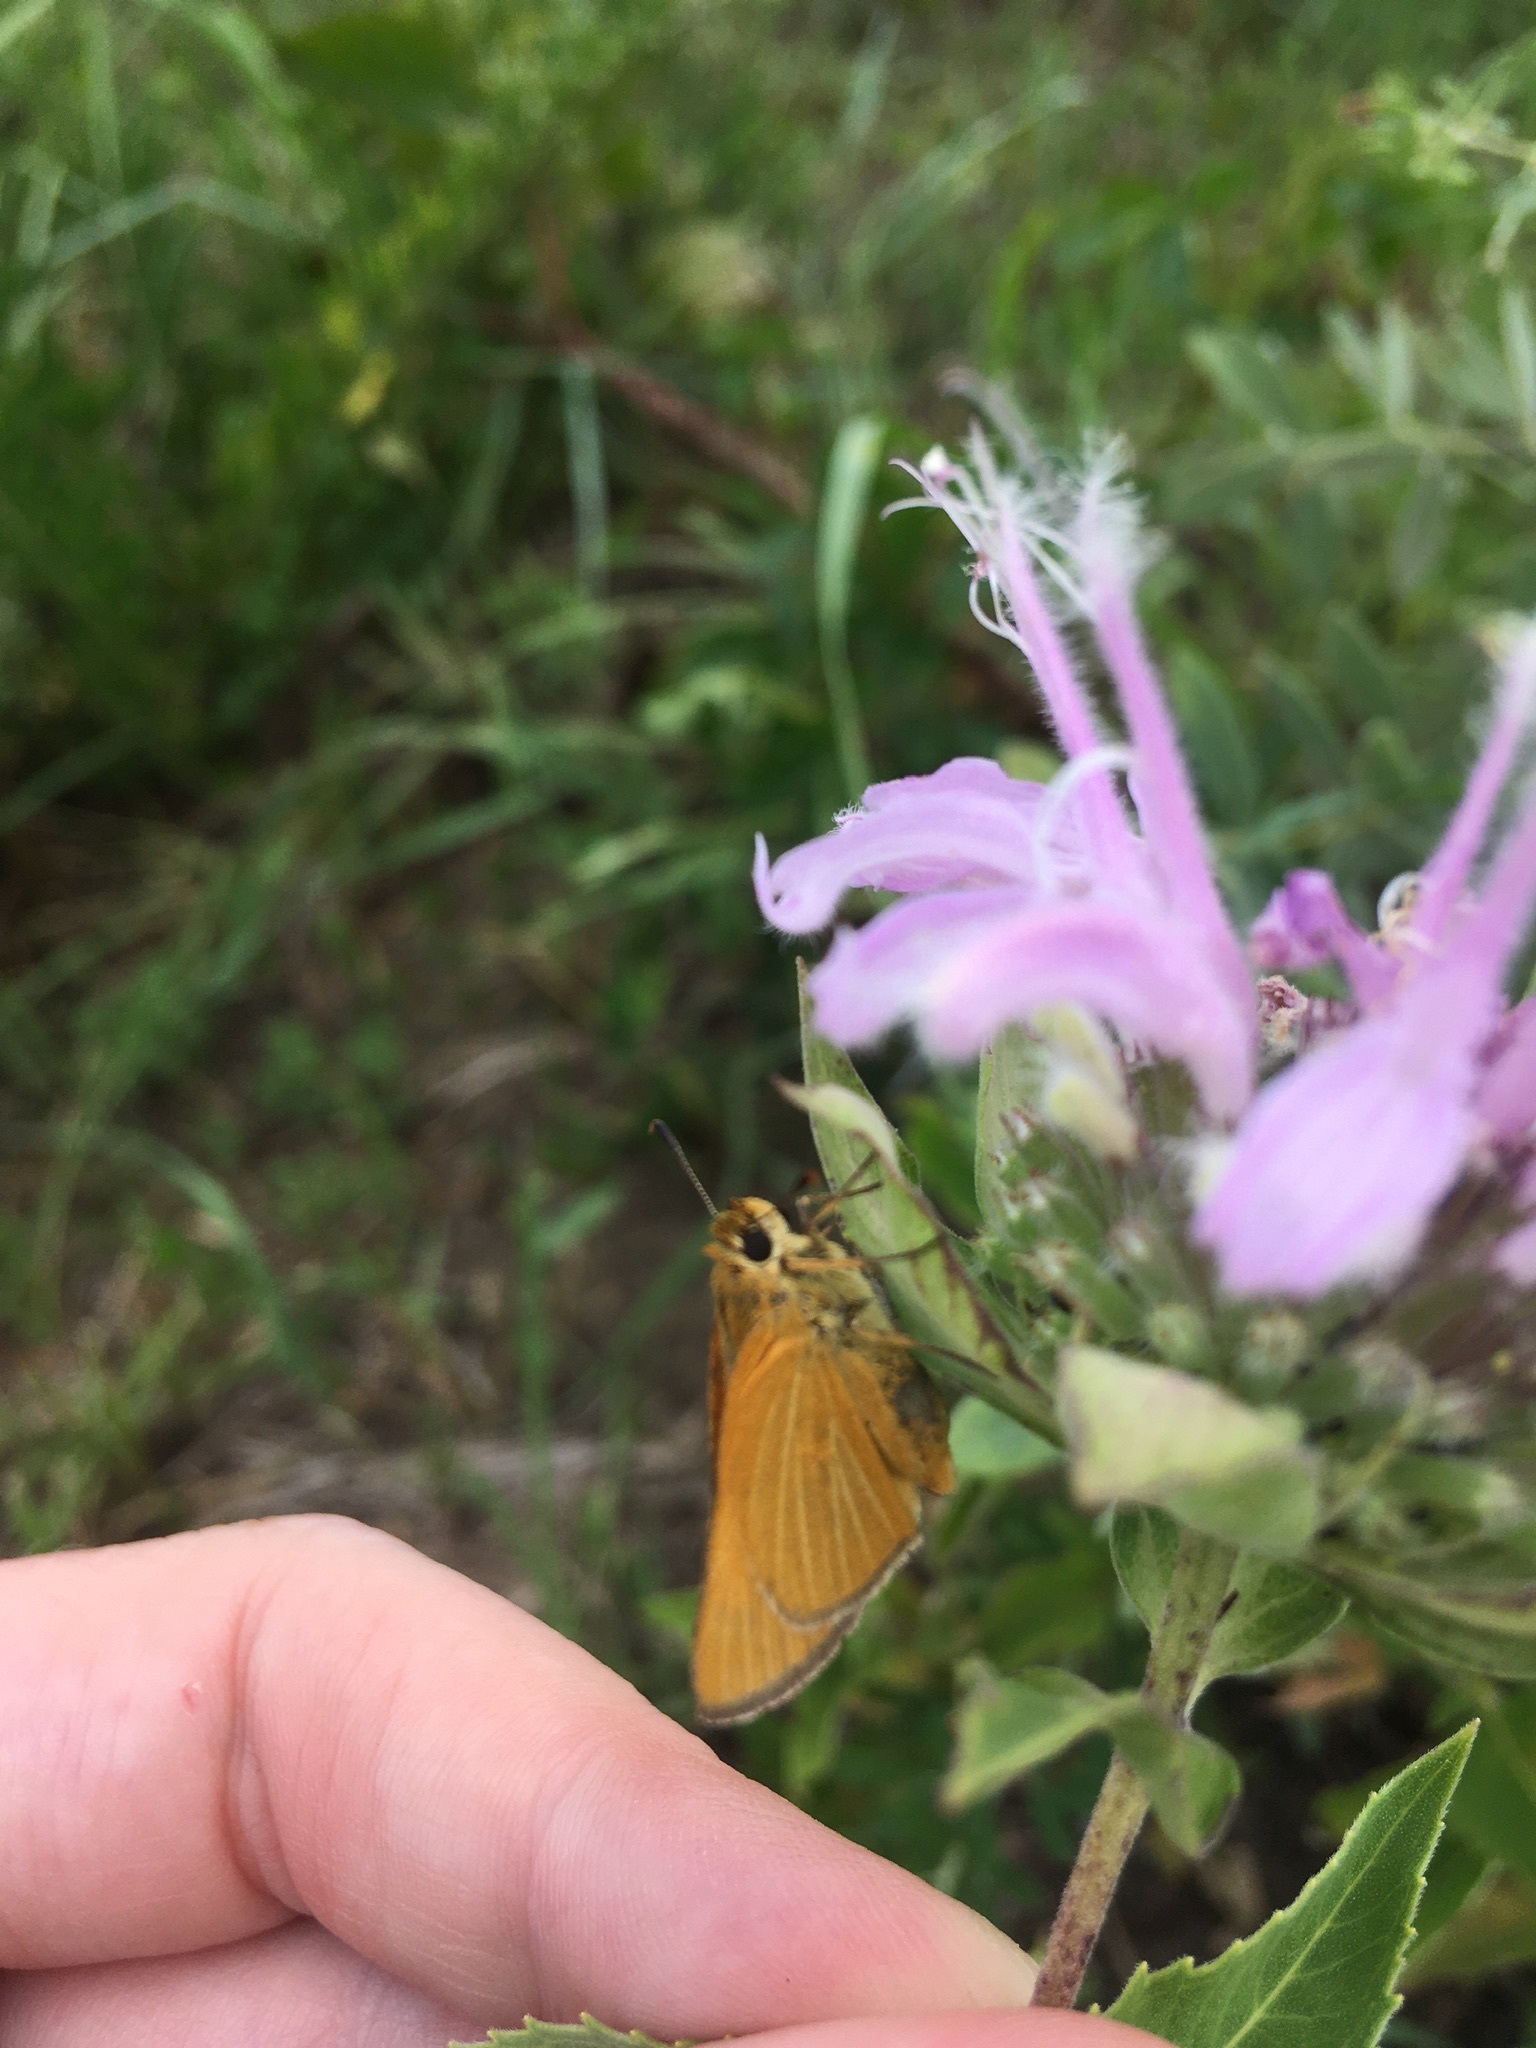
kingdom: Animalia
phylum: Arthropoda
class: Insecta
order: Lepidoptera
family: Hesperiidae
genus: Atrytone
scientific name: Atrytone arogos
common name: Arogos skipper
